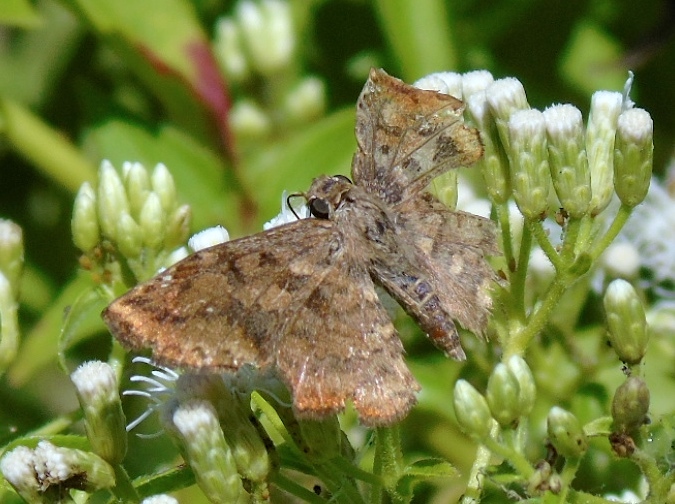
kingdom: Animalia
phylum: Arthropoda
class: Insecta
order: Lepidoptera
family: Hesperiidae
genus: Antigonus
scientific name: Antigonus erosus
